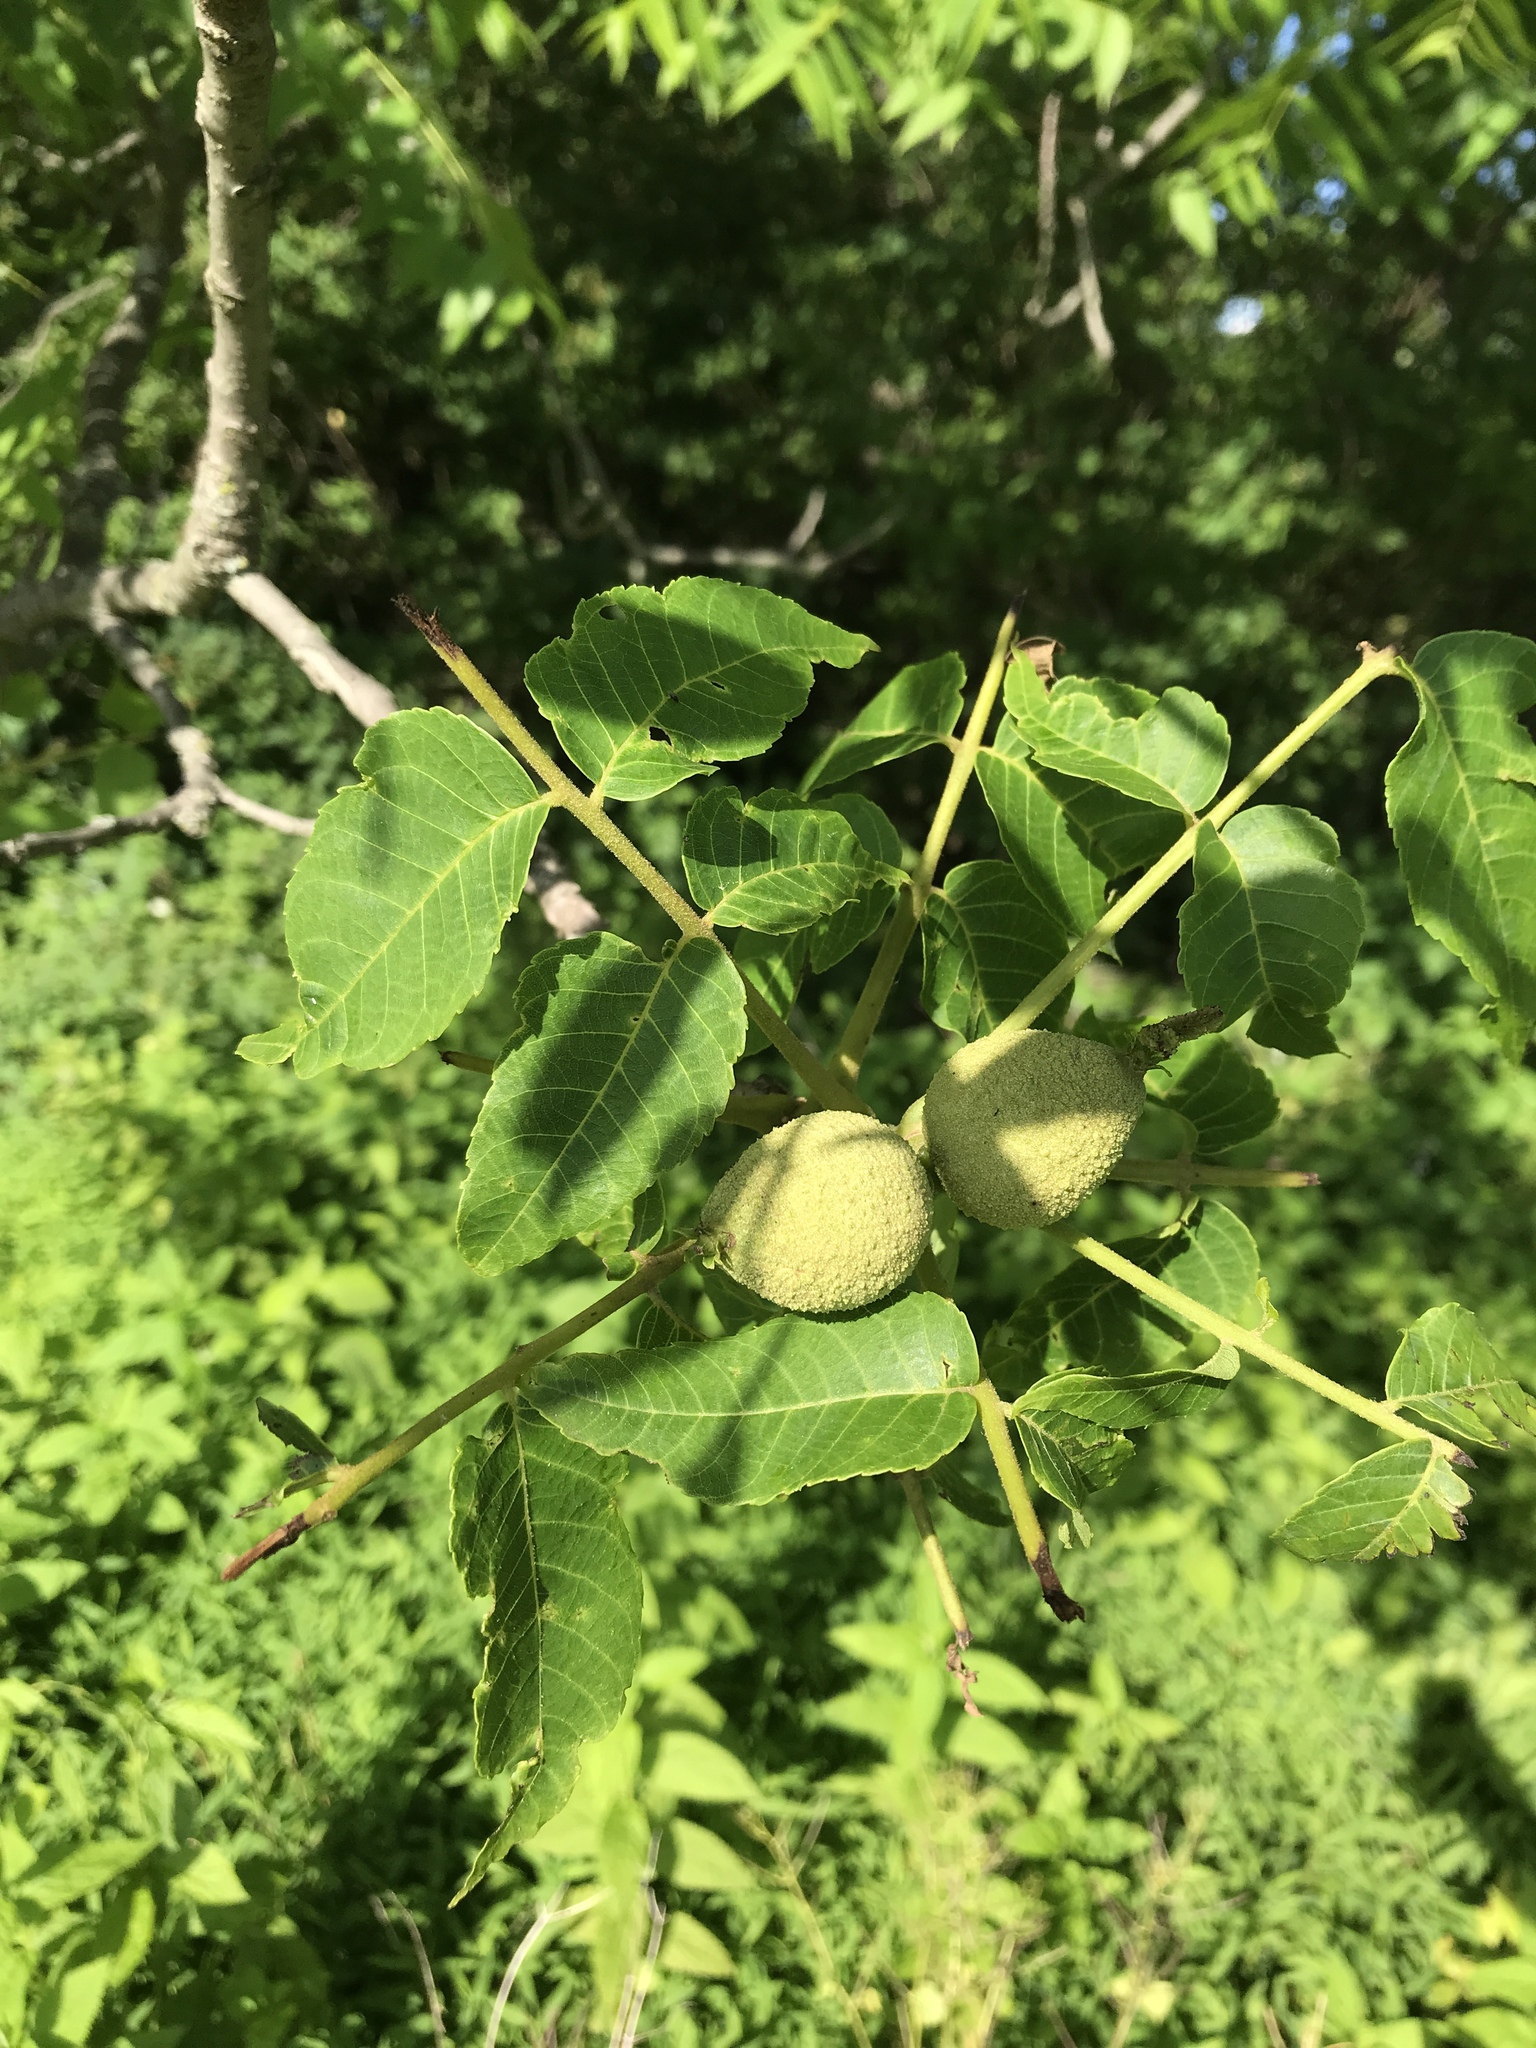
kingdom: Plantae
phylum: Tracheophyta
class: Magnoliopsida
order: Fagales
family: Juglandaceae
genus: Juglans
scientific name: Juglans nigra
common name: Black walnut
